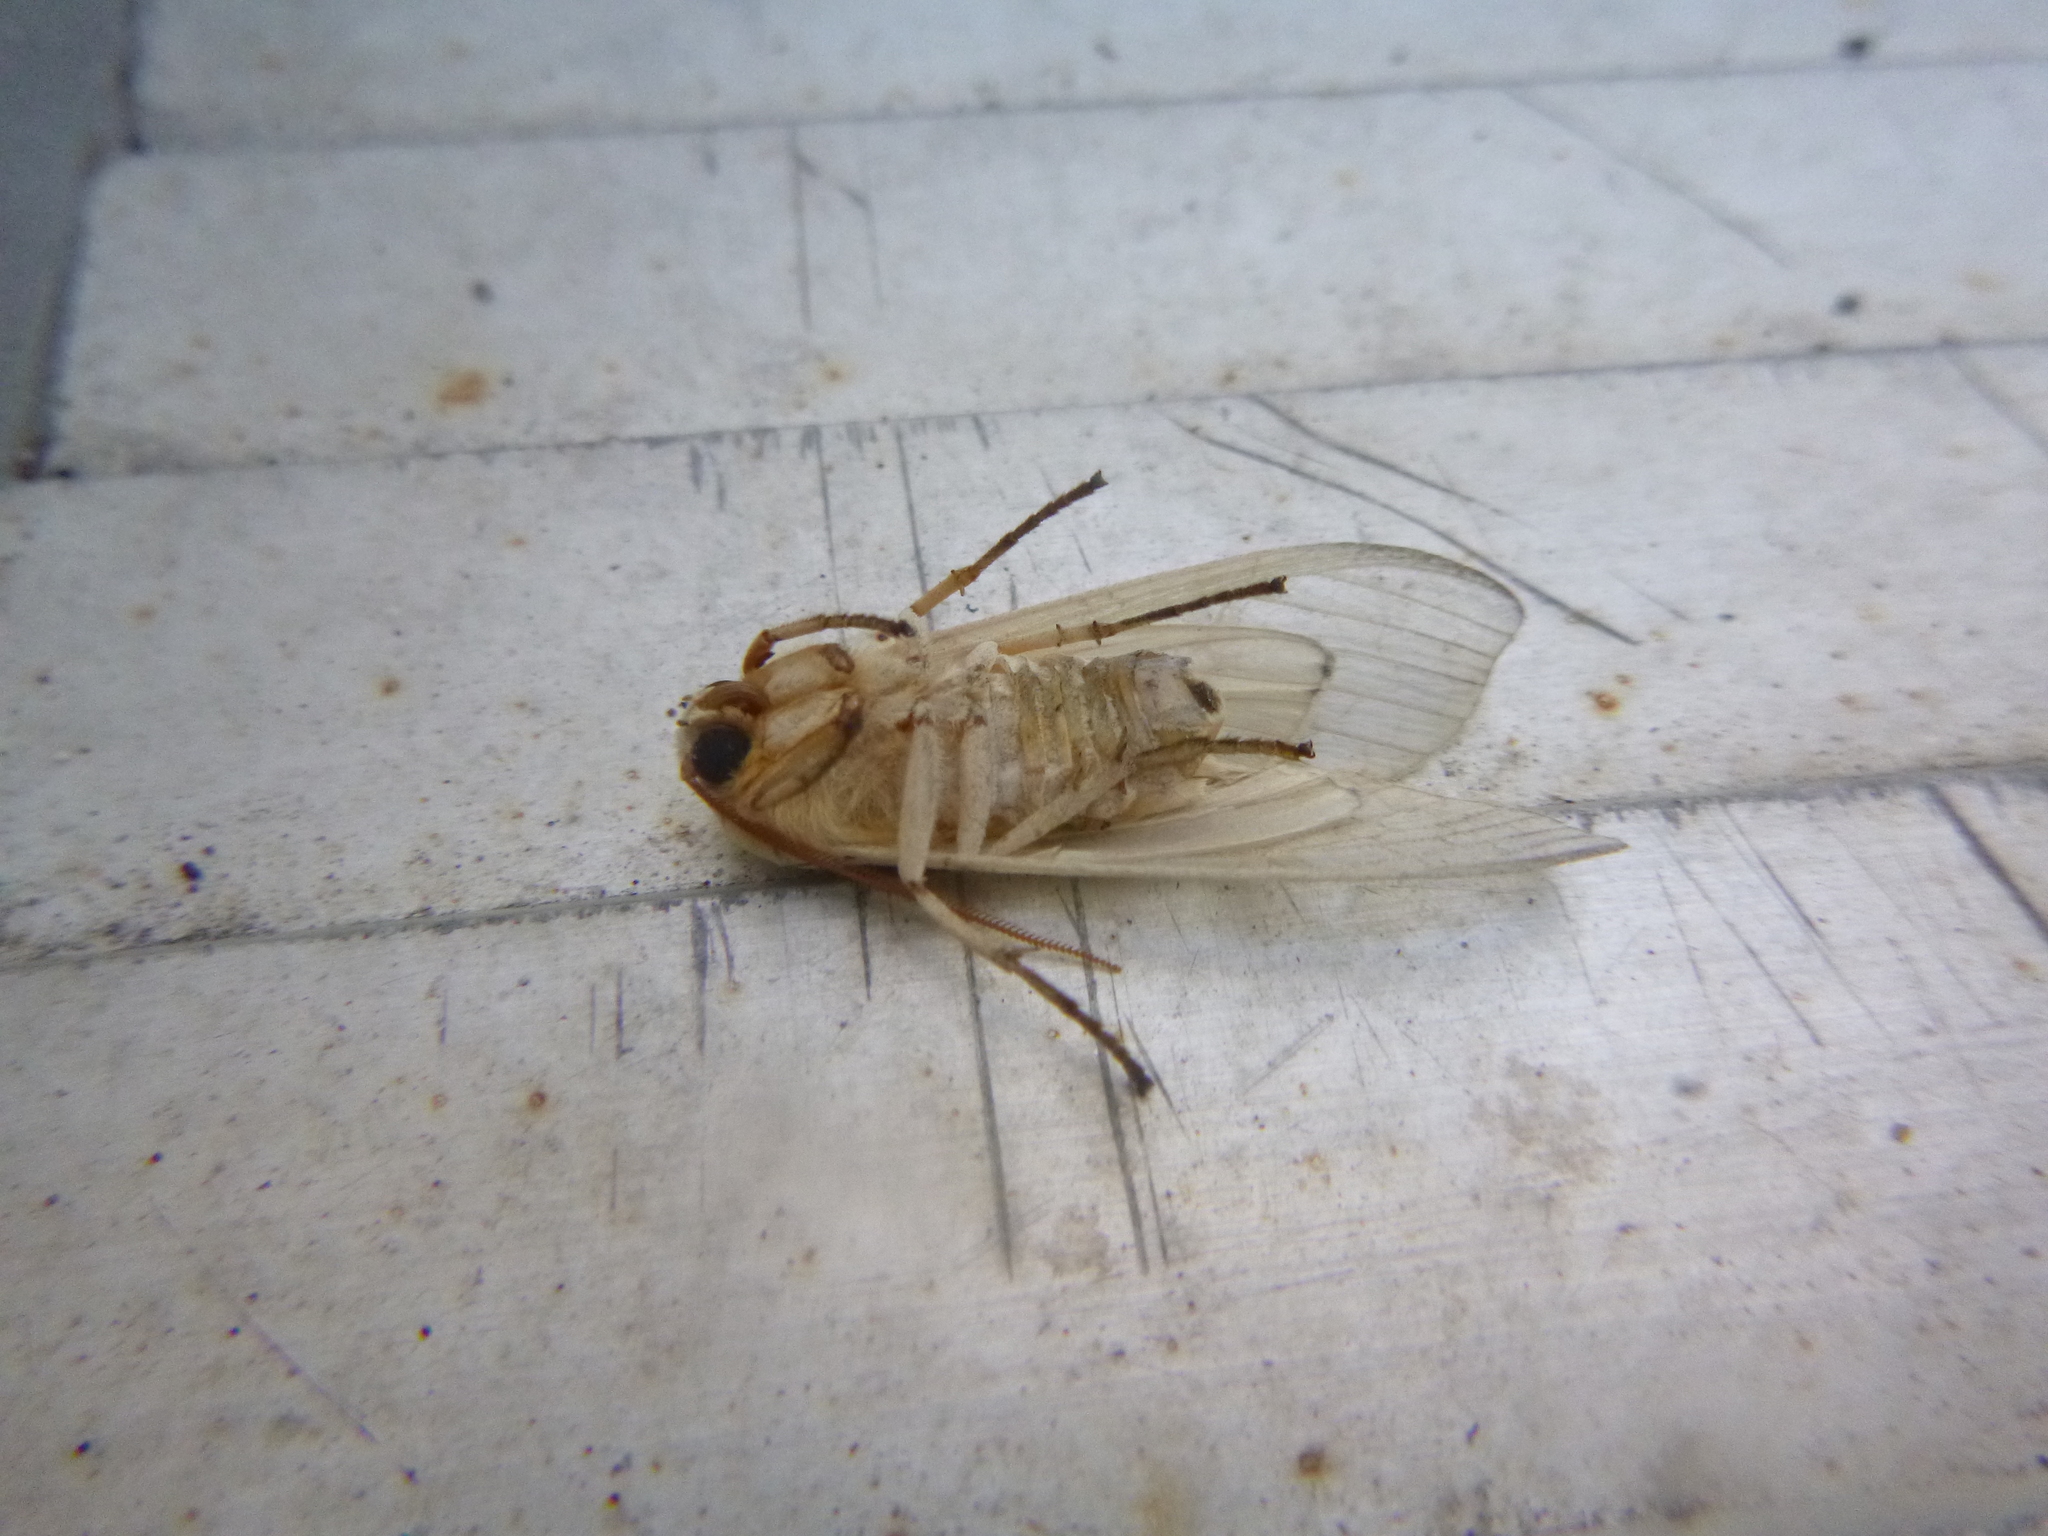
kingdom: Animalia
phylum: Arthropoda
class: Insecta
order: Lepidoptera
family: Erebidae
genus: Halysidota
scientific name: Halysidota tessellaris
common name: Banded tussock moth
